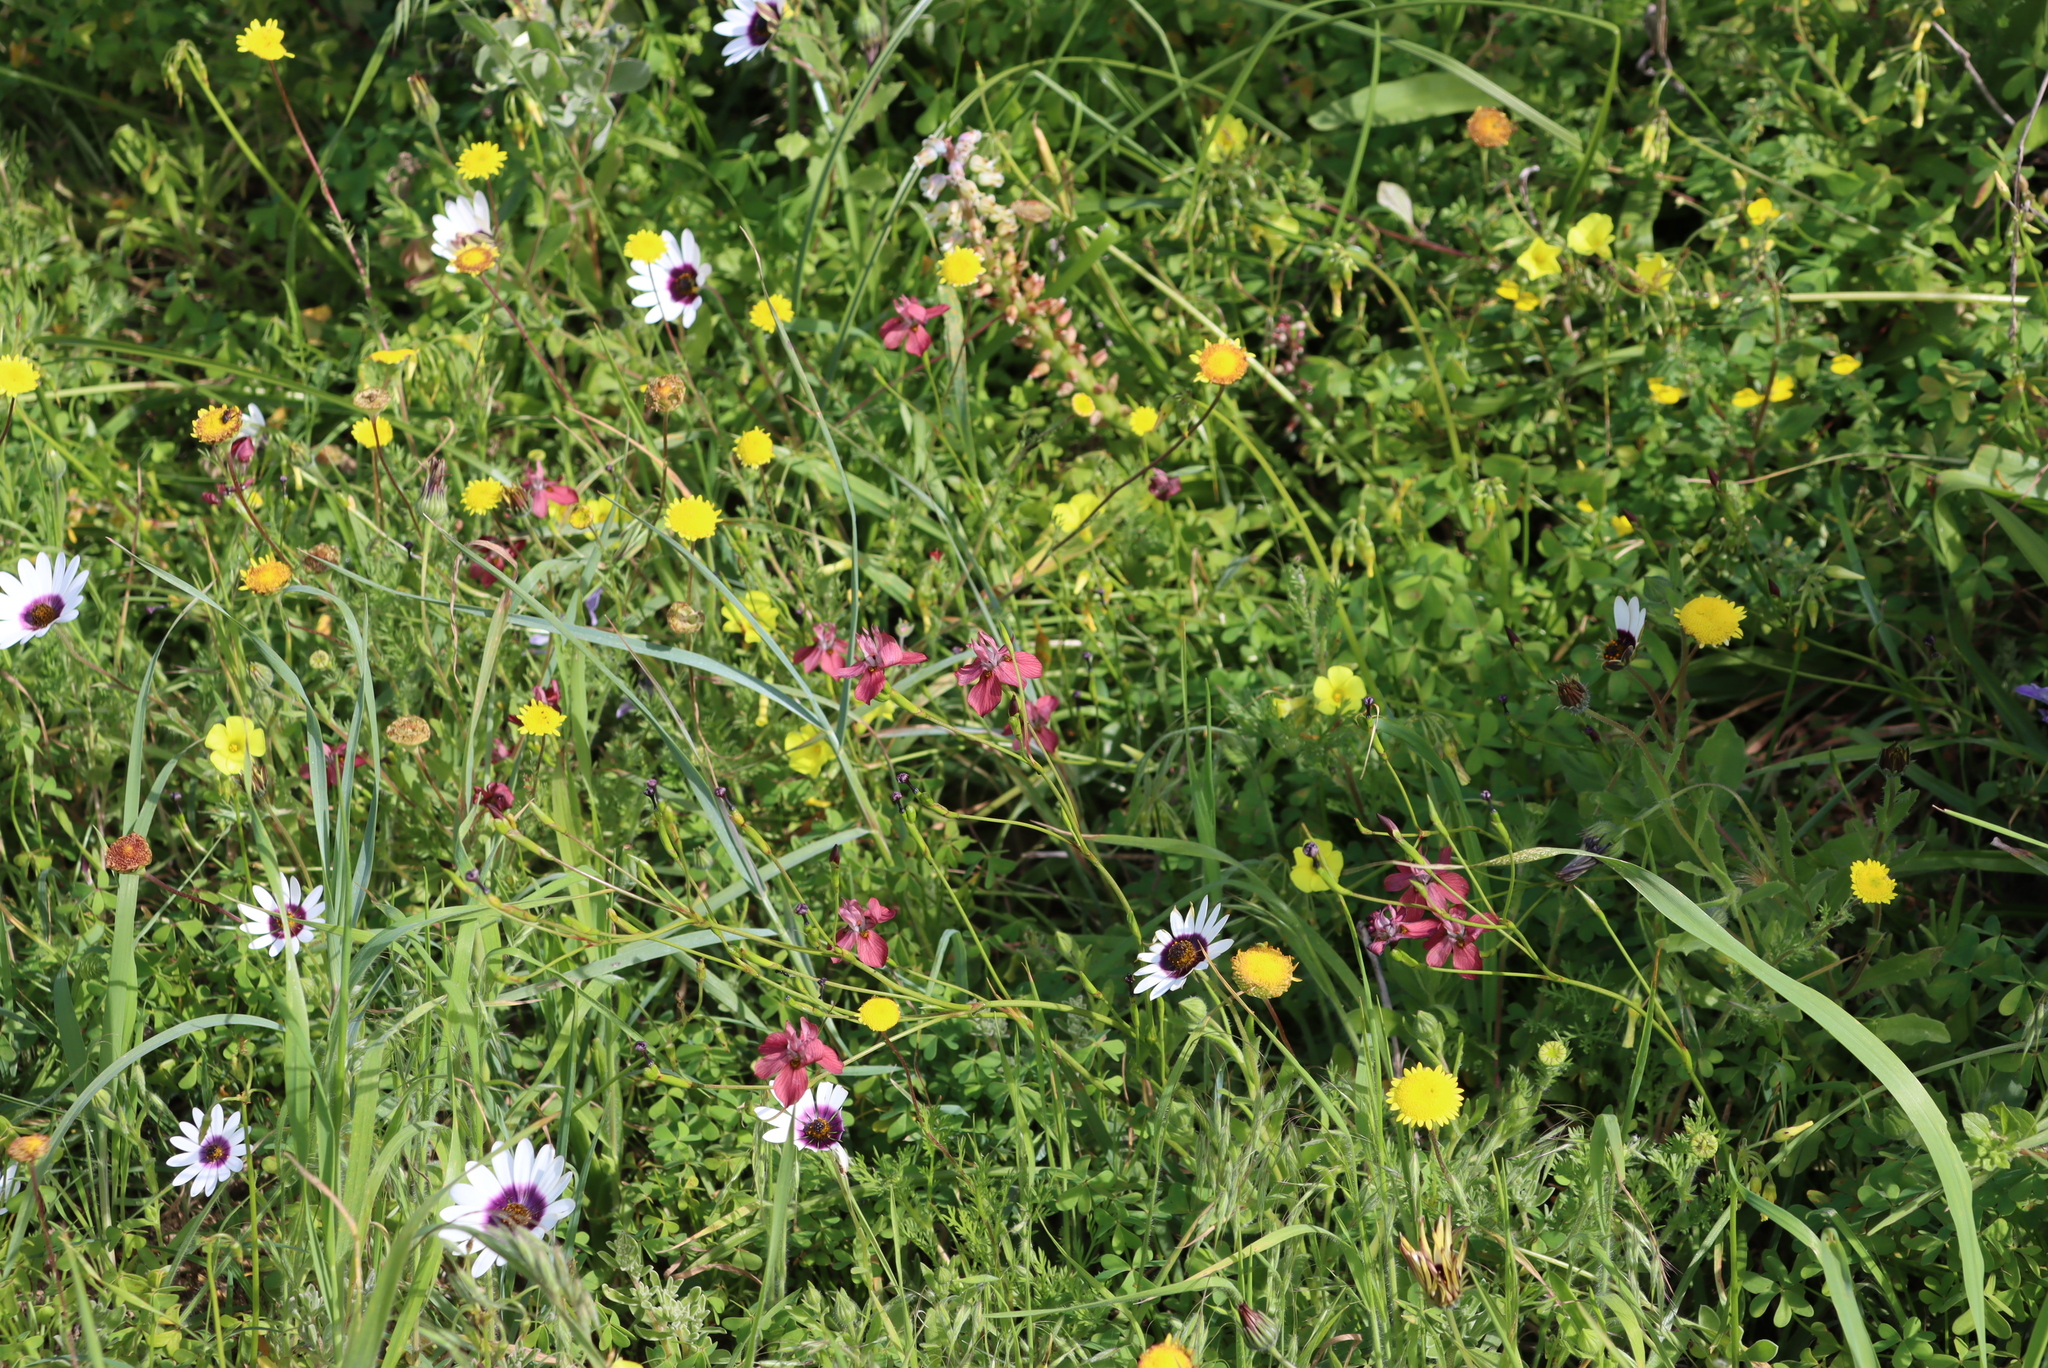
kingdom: Plantae
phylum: Tracheophyta
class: Liliopsida
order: Asparagales
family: Iridaceae
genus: Moraea
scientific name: Moraea gawleri
